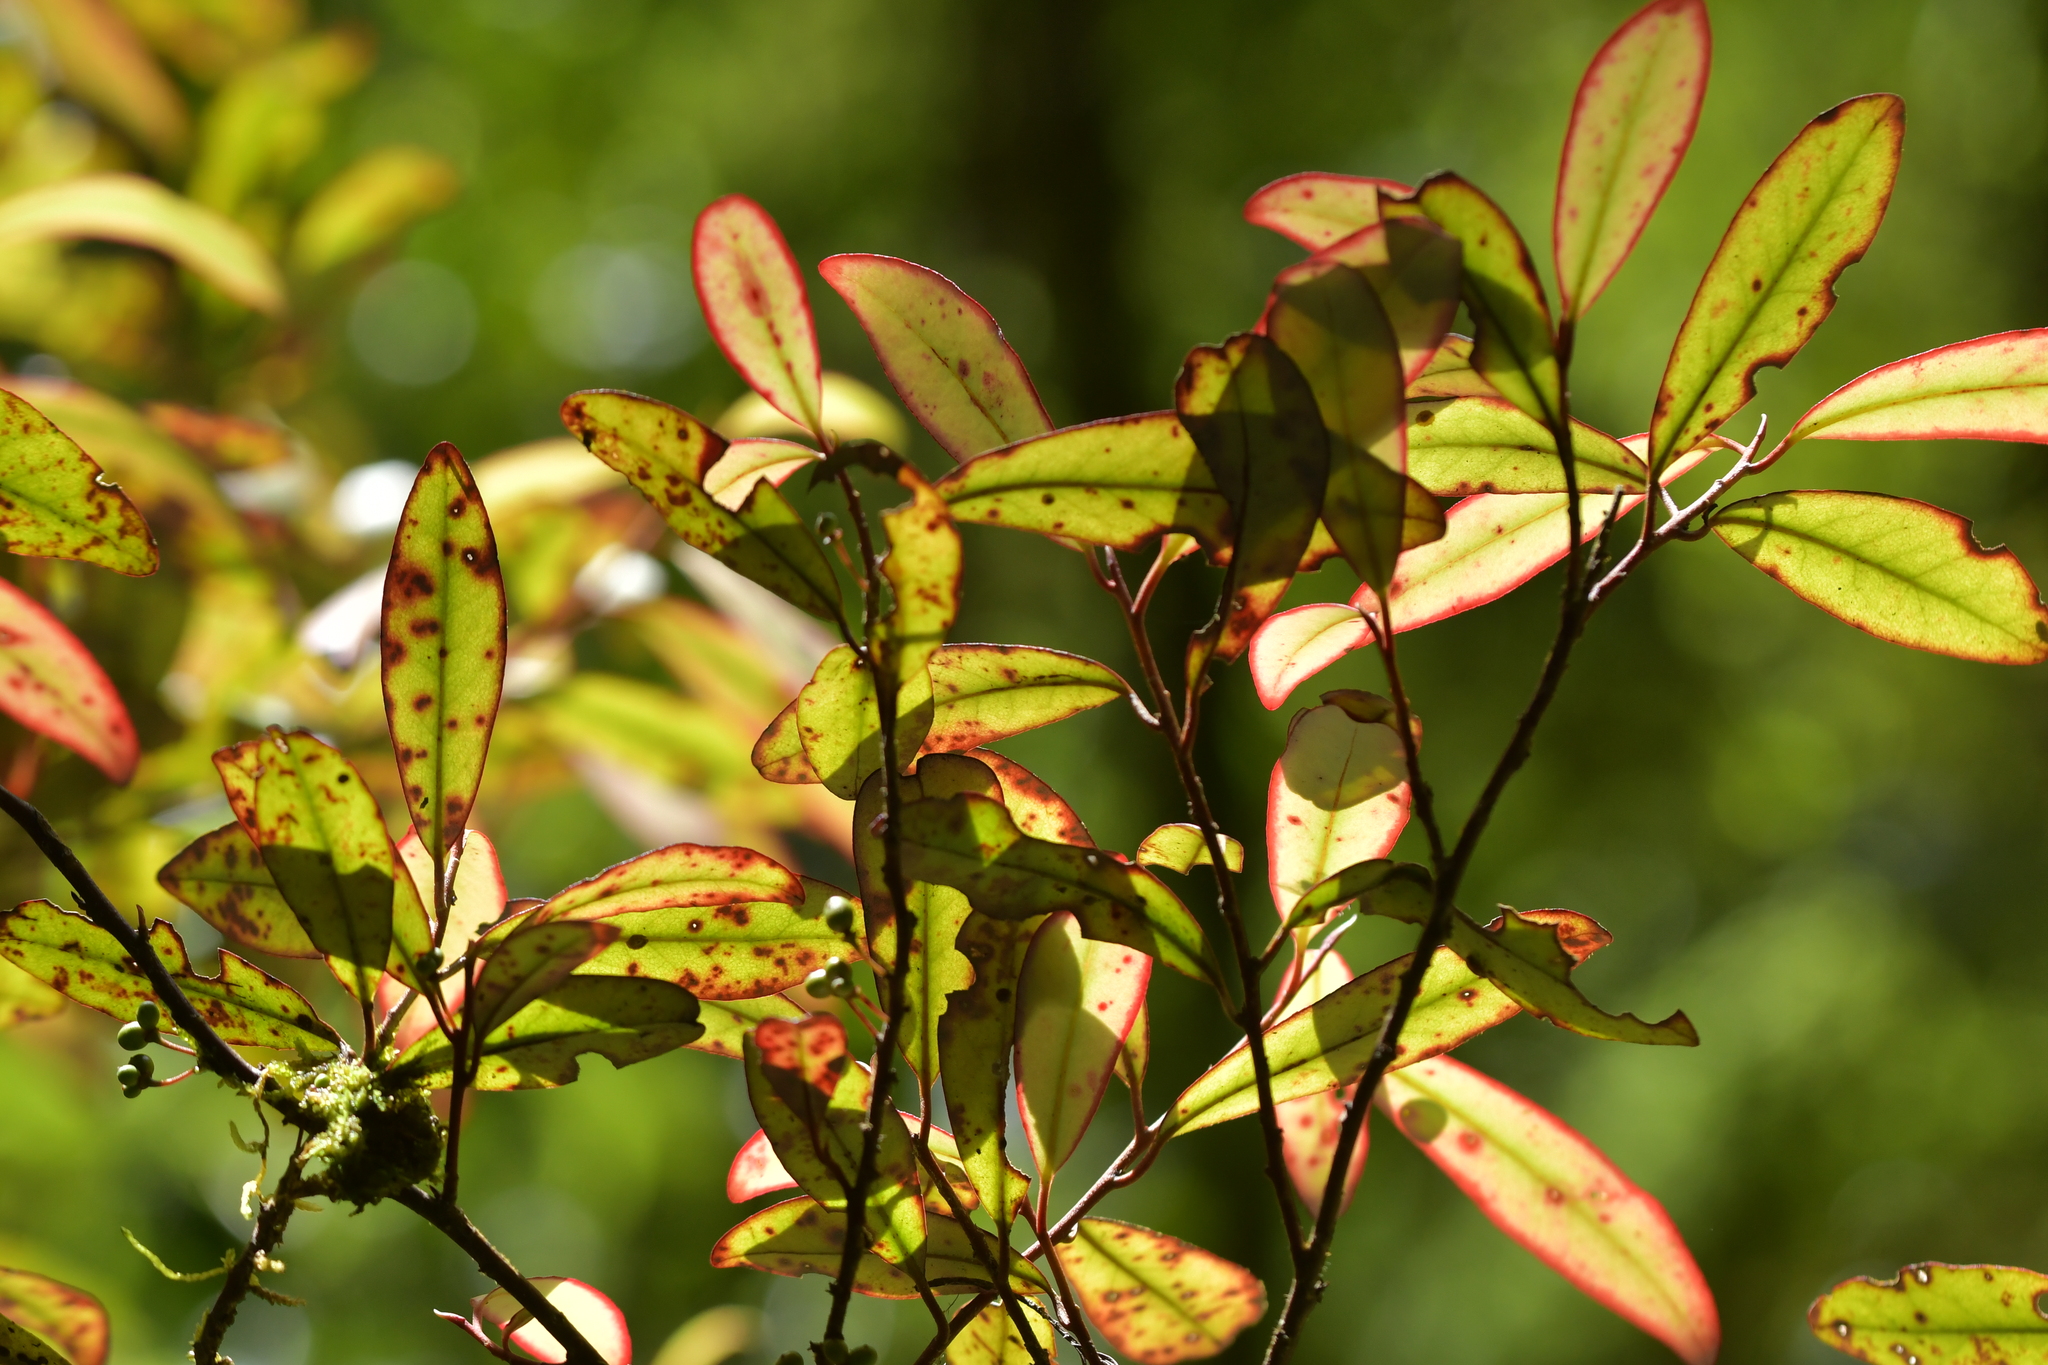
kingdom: Plantae
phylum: Tracheophyta
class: Magnoliopsida
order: Canellales
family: Winteraceae
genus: Pseudowintera
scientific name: Pseudowintera colorata
